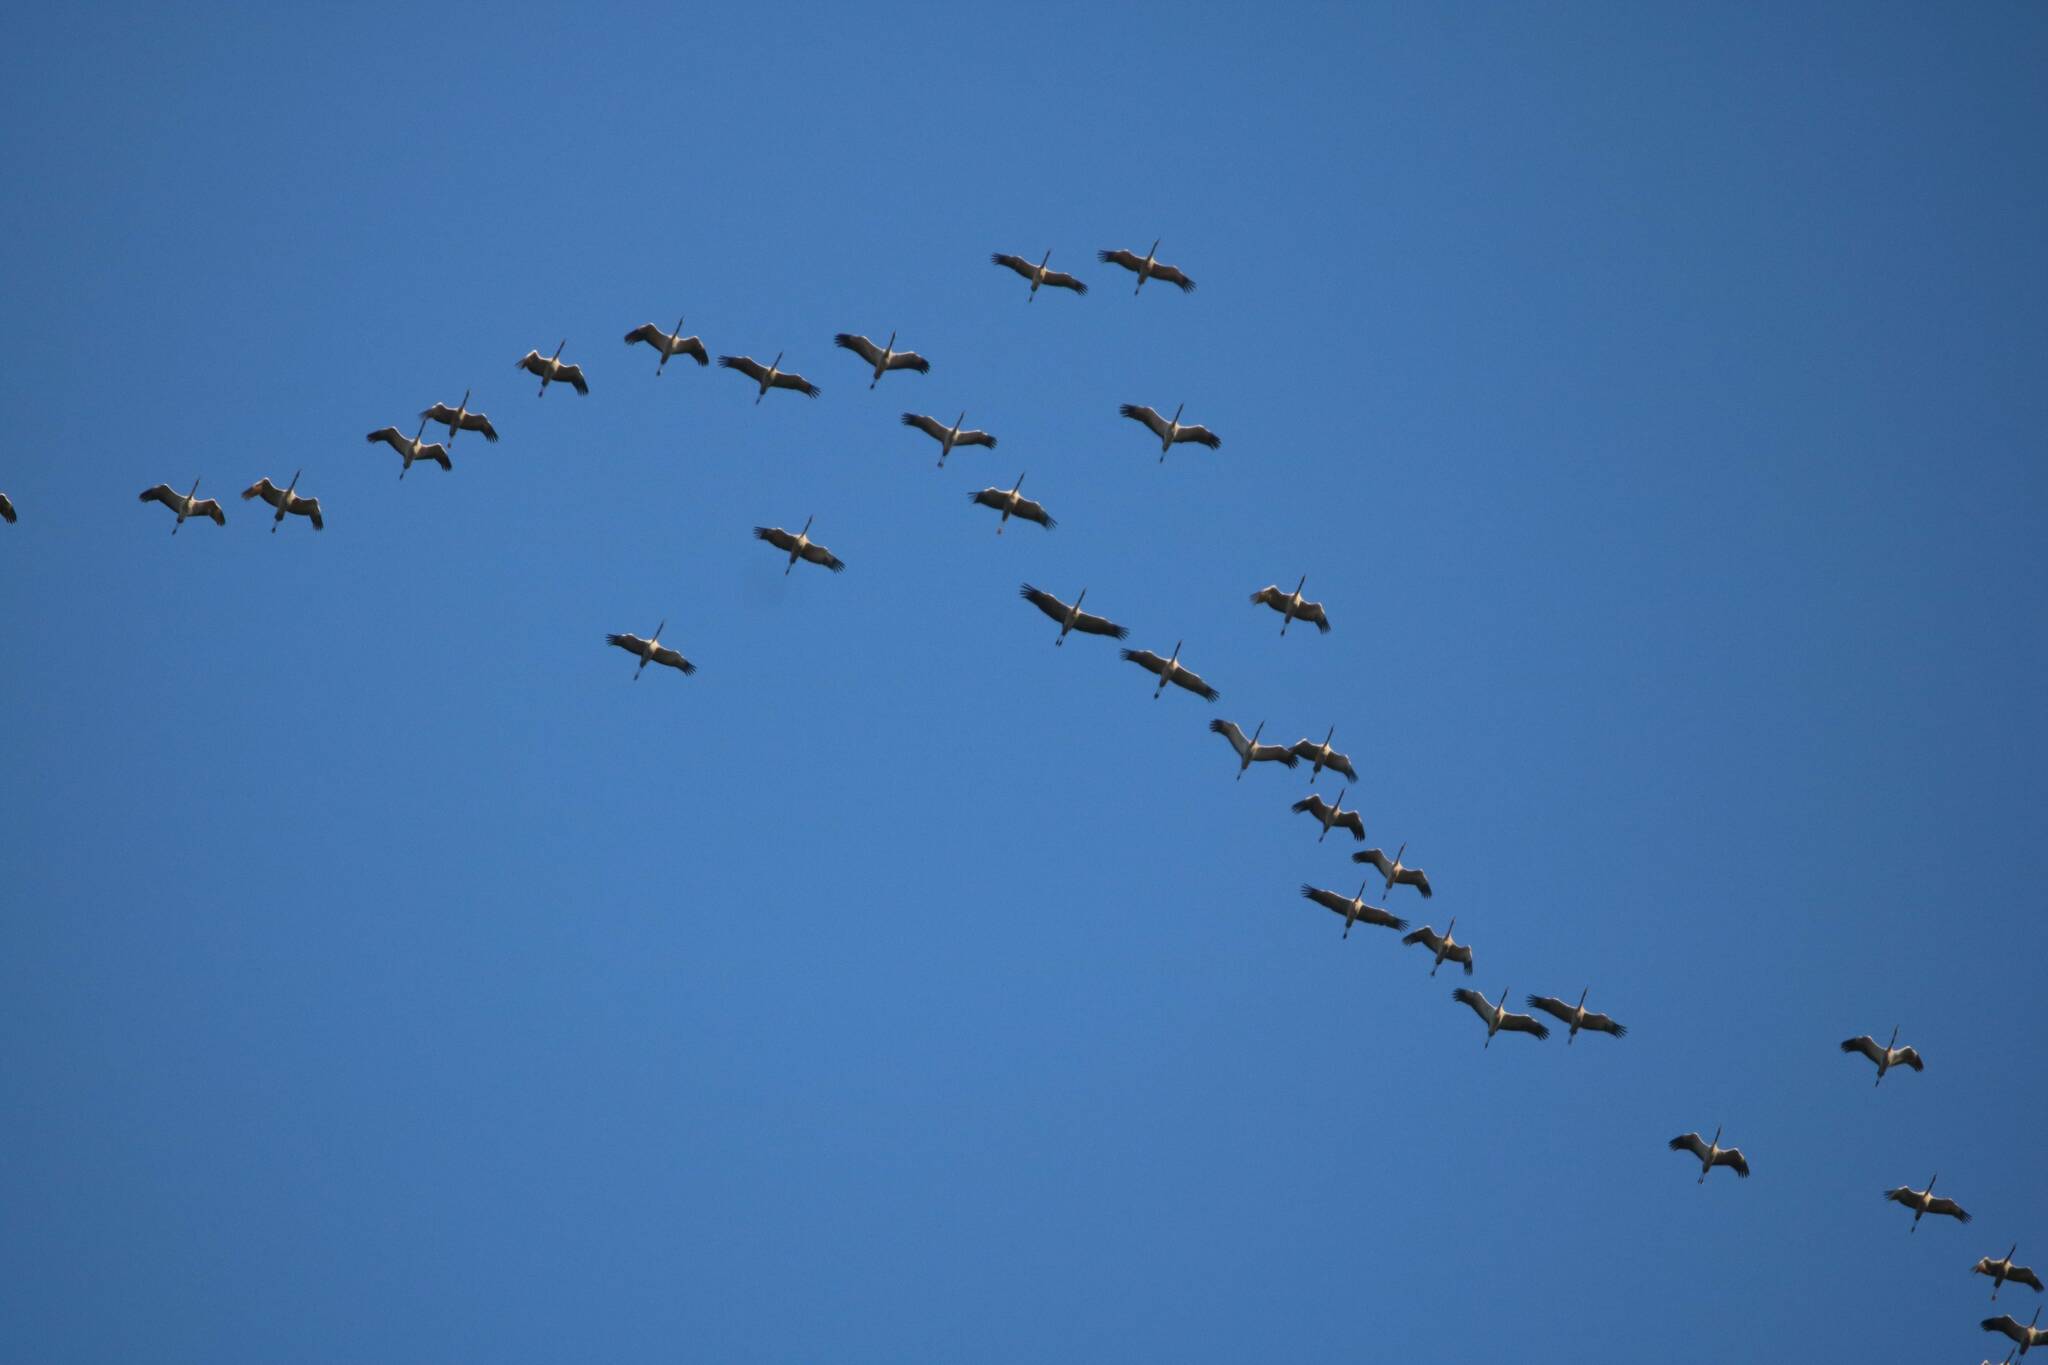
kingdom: Animalia
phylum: Chordata
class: Aves
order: Gruiformes
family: Gruidae
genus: Grus
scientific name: Grus grus
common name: Common crane
